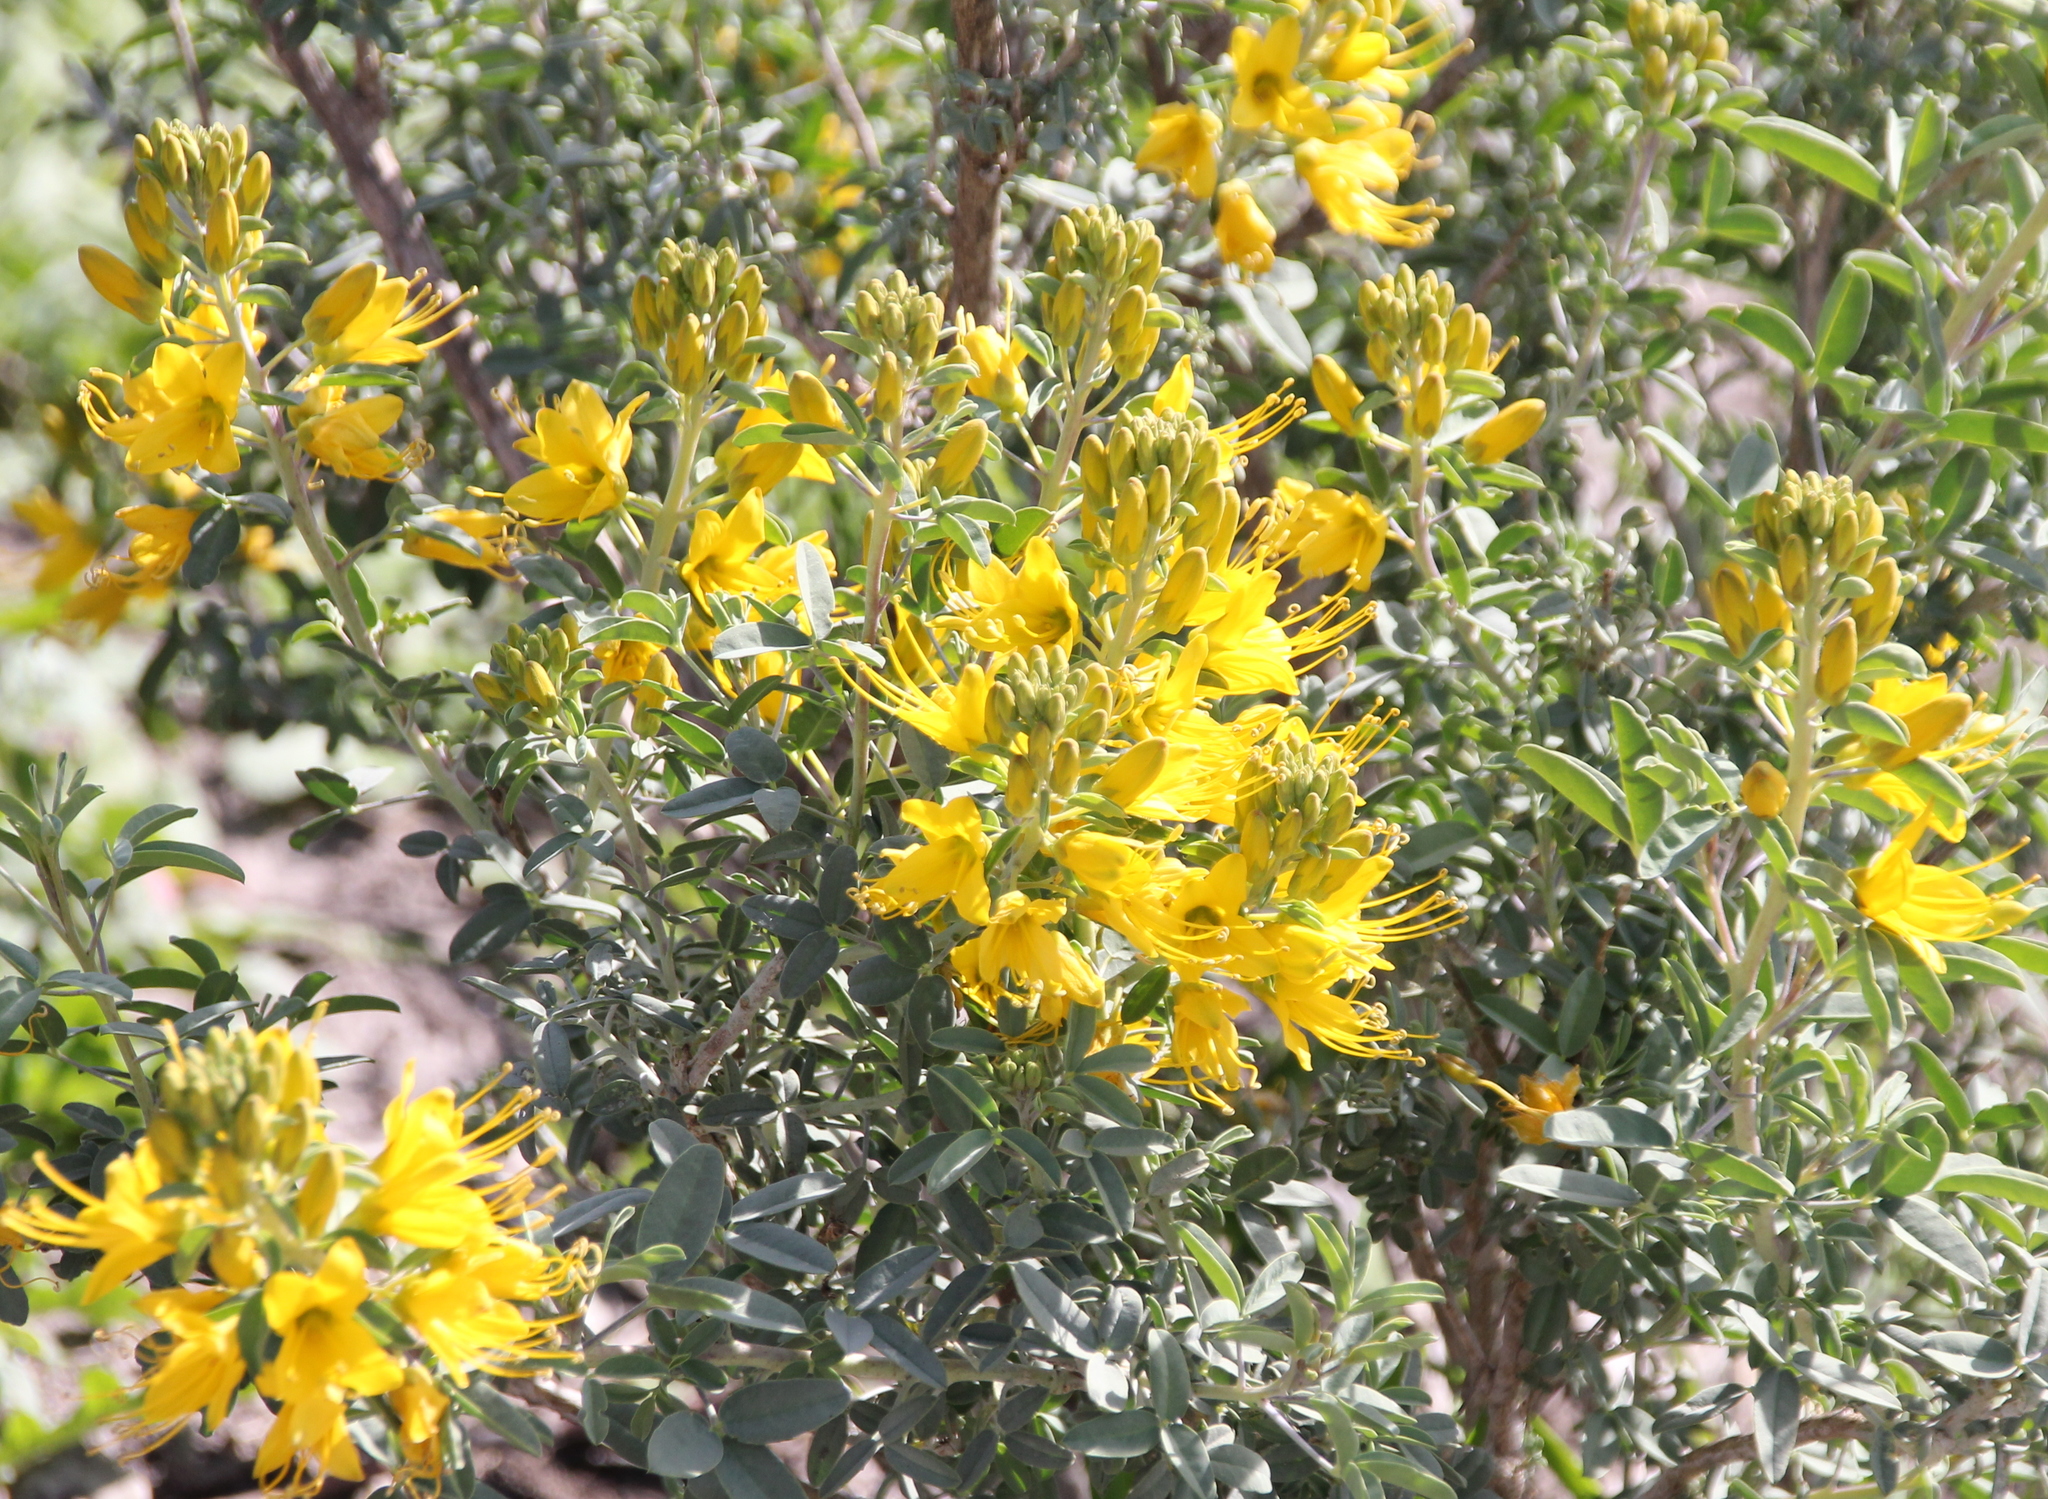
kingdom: Plantae
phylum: Tracheophyta
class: Magnoliopsida
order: Brassicales
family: Cleomaceae
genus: Cleomella
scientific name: Cleomella arborea
